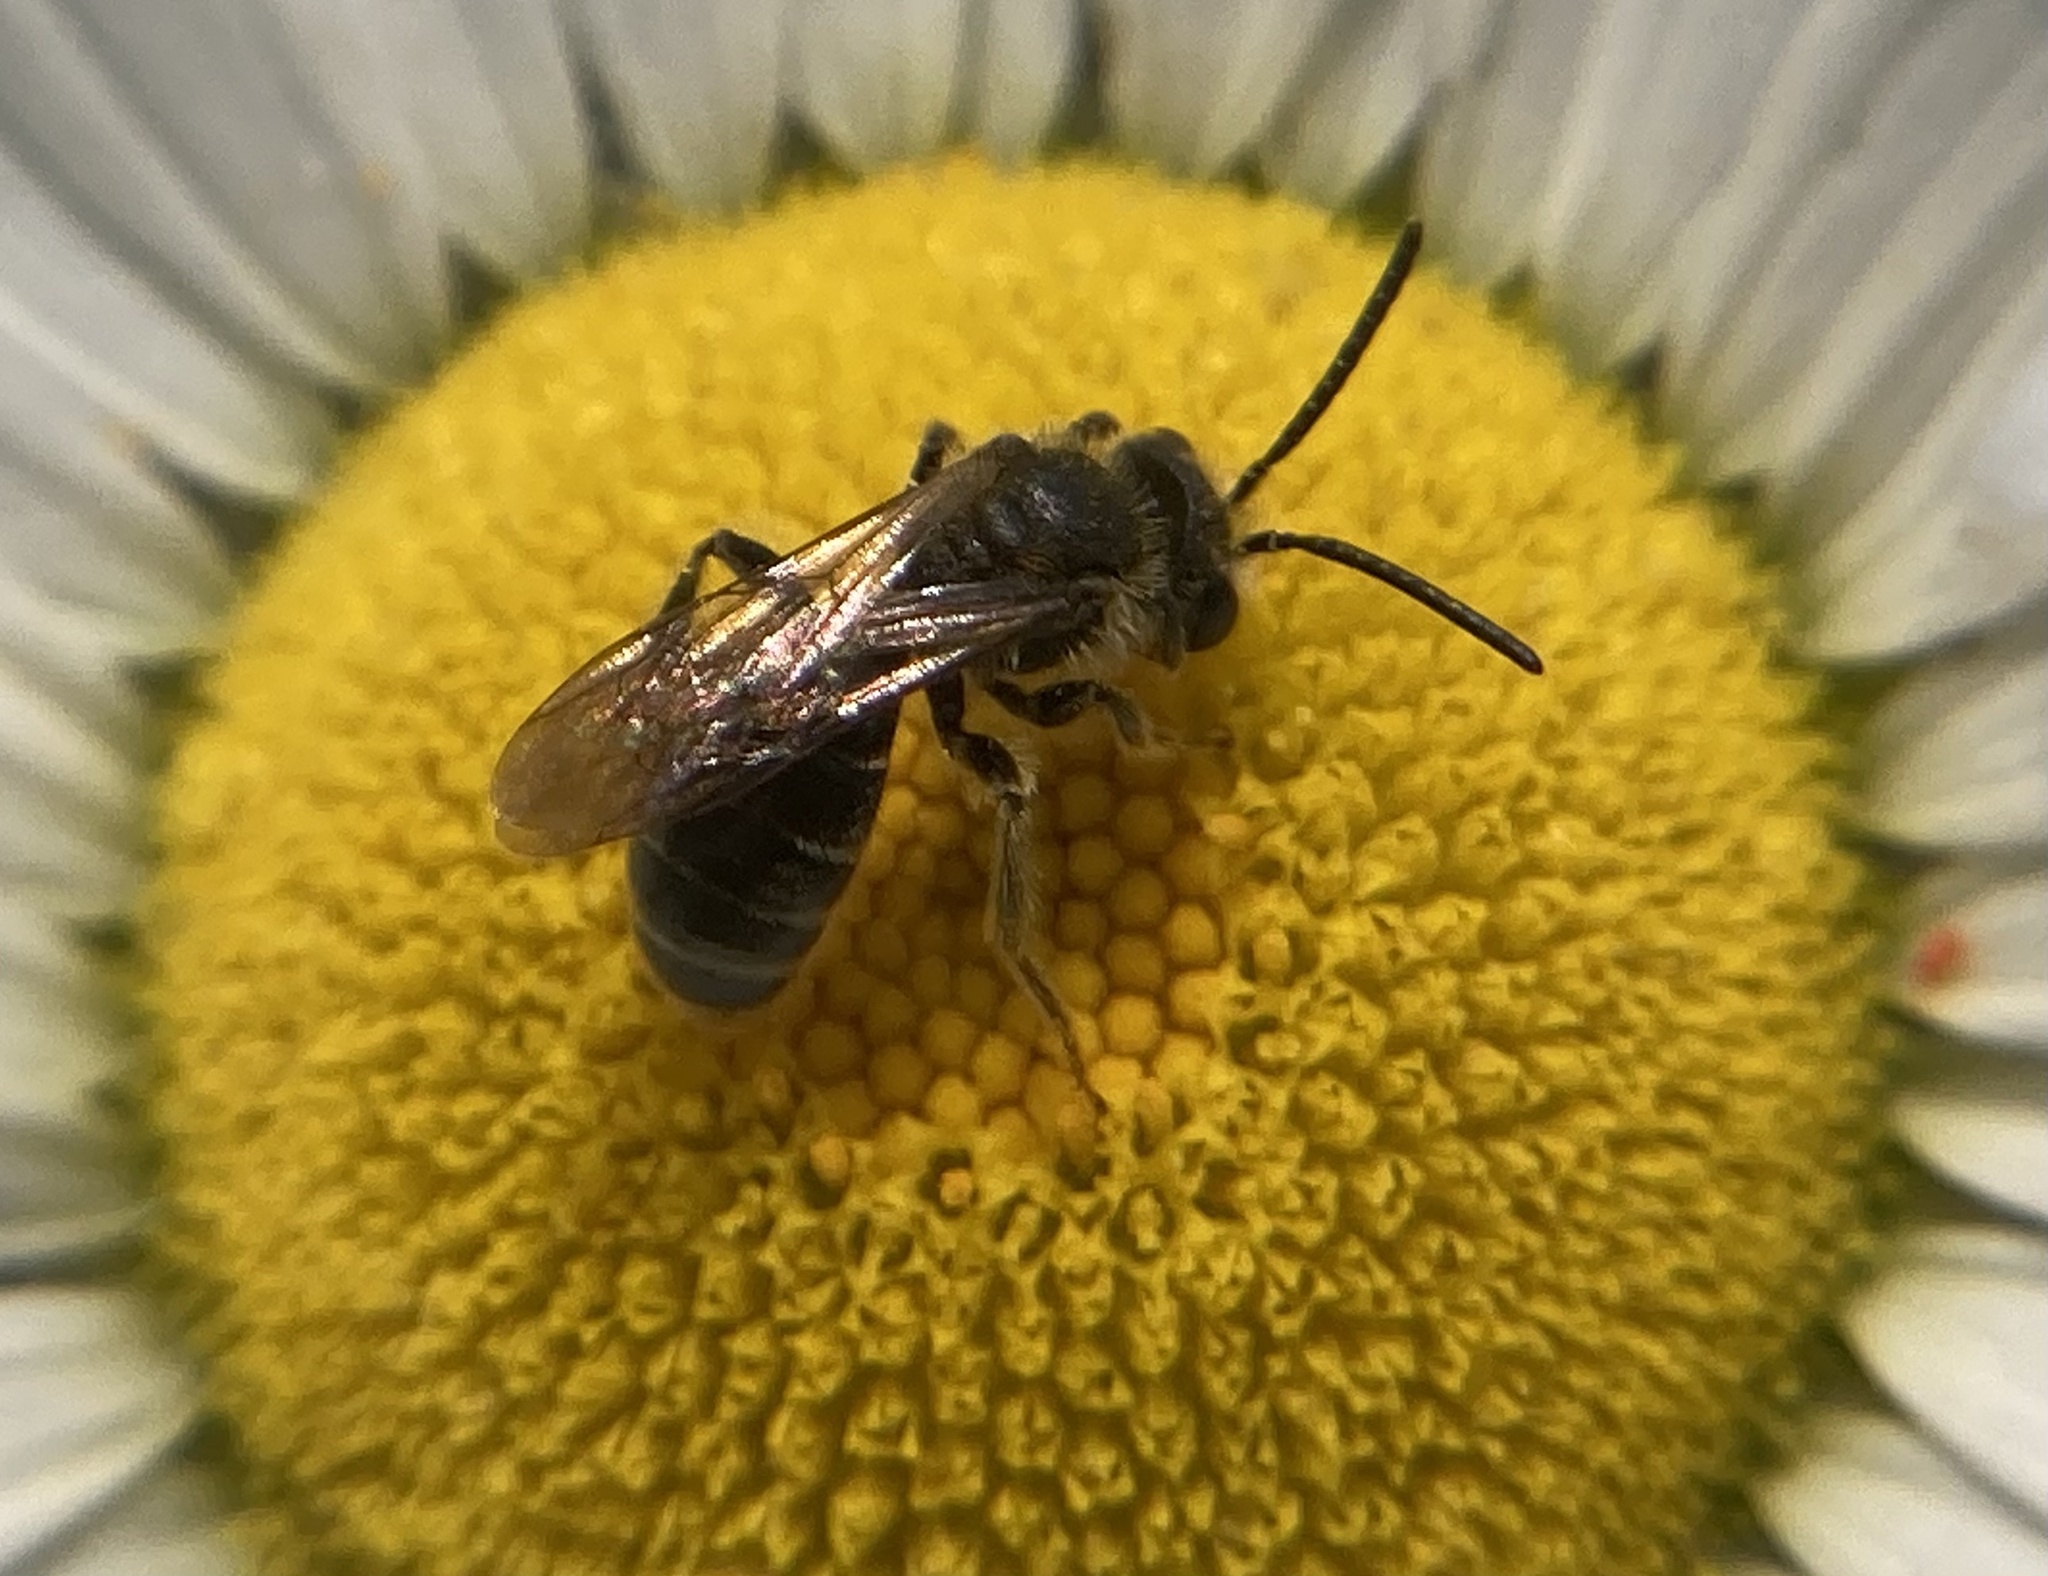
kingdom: Animalia
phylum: Arthropoda
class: Insecta
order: Hymenoptera
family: Andrenidae
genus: Andrena
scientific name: Andrena
